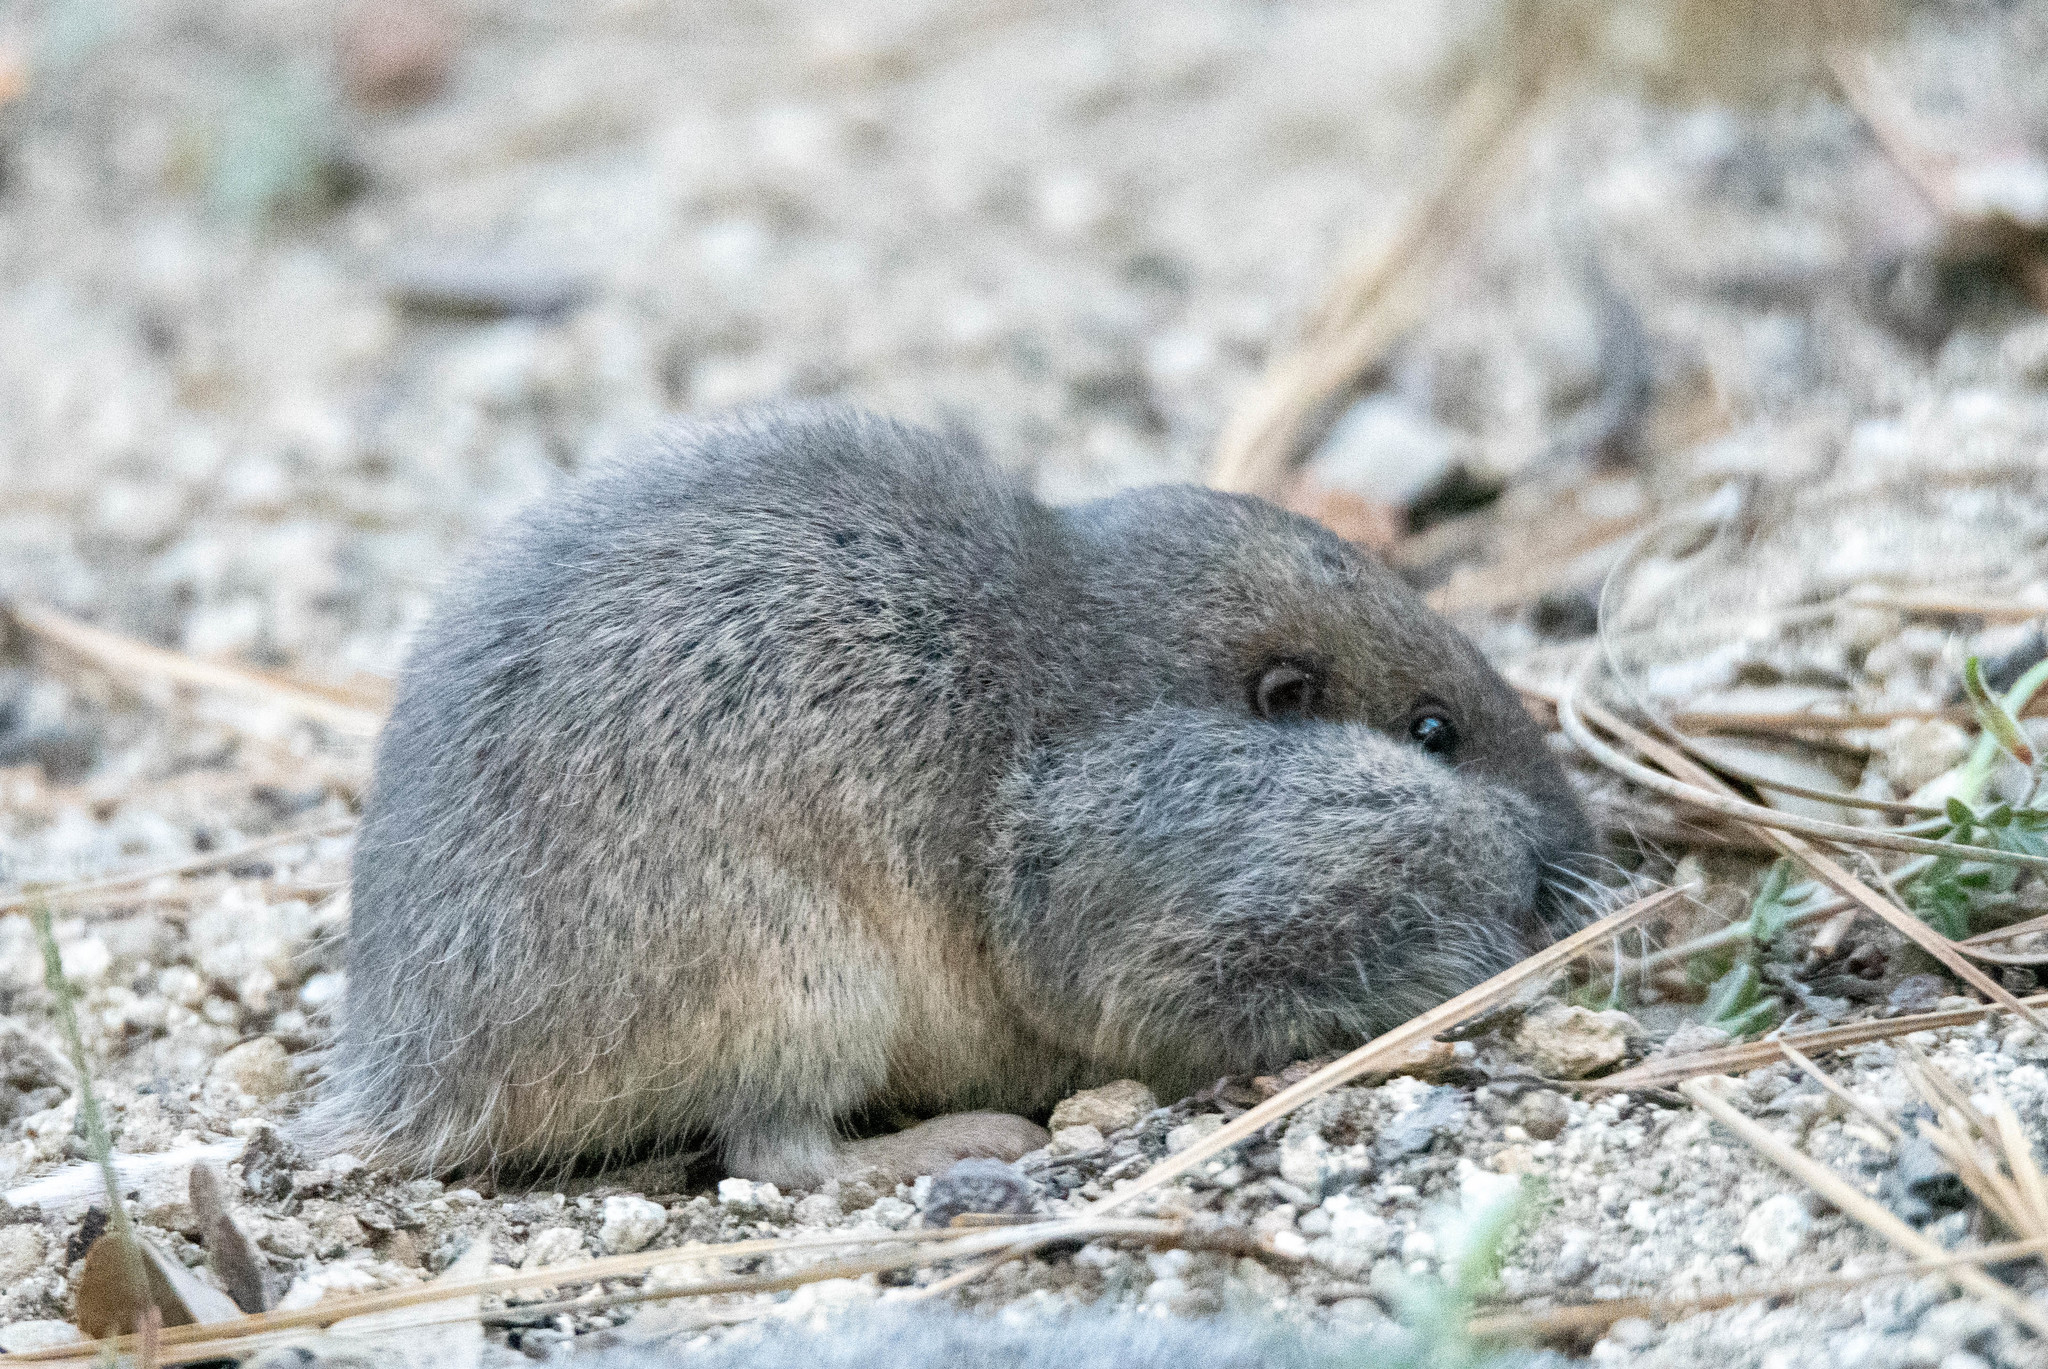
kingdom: Animalia
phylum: Chordata
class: Mammalia
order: Rodentia
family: Geomyidae
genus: Thomomys
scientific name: Thomomys bottae
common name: Botta's pocket gopher
